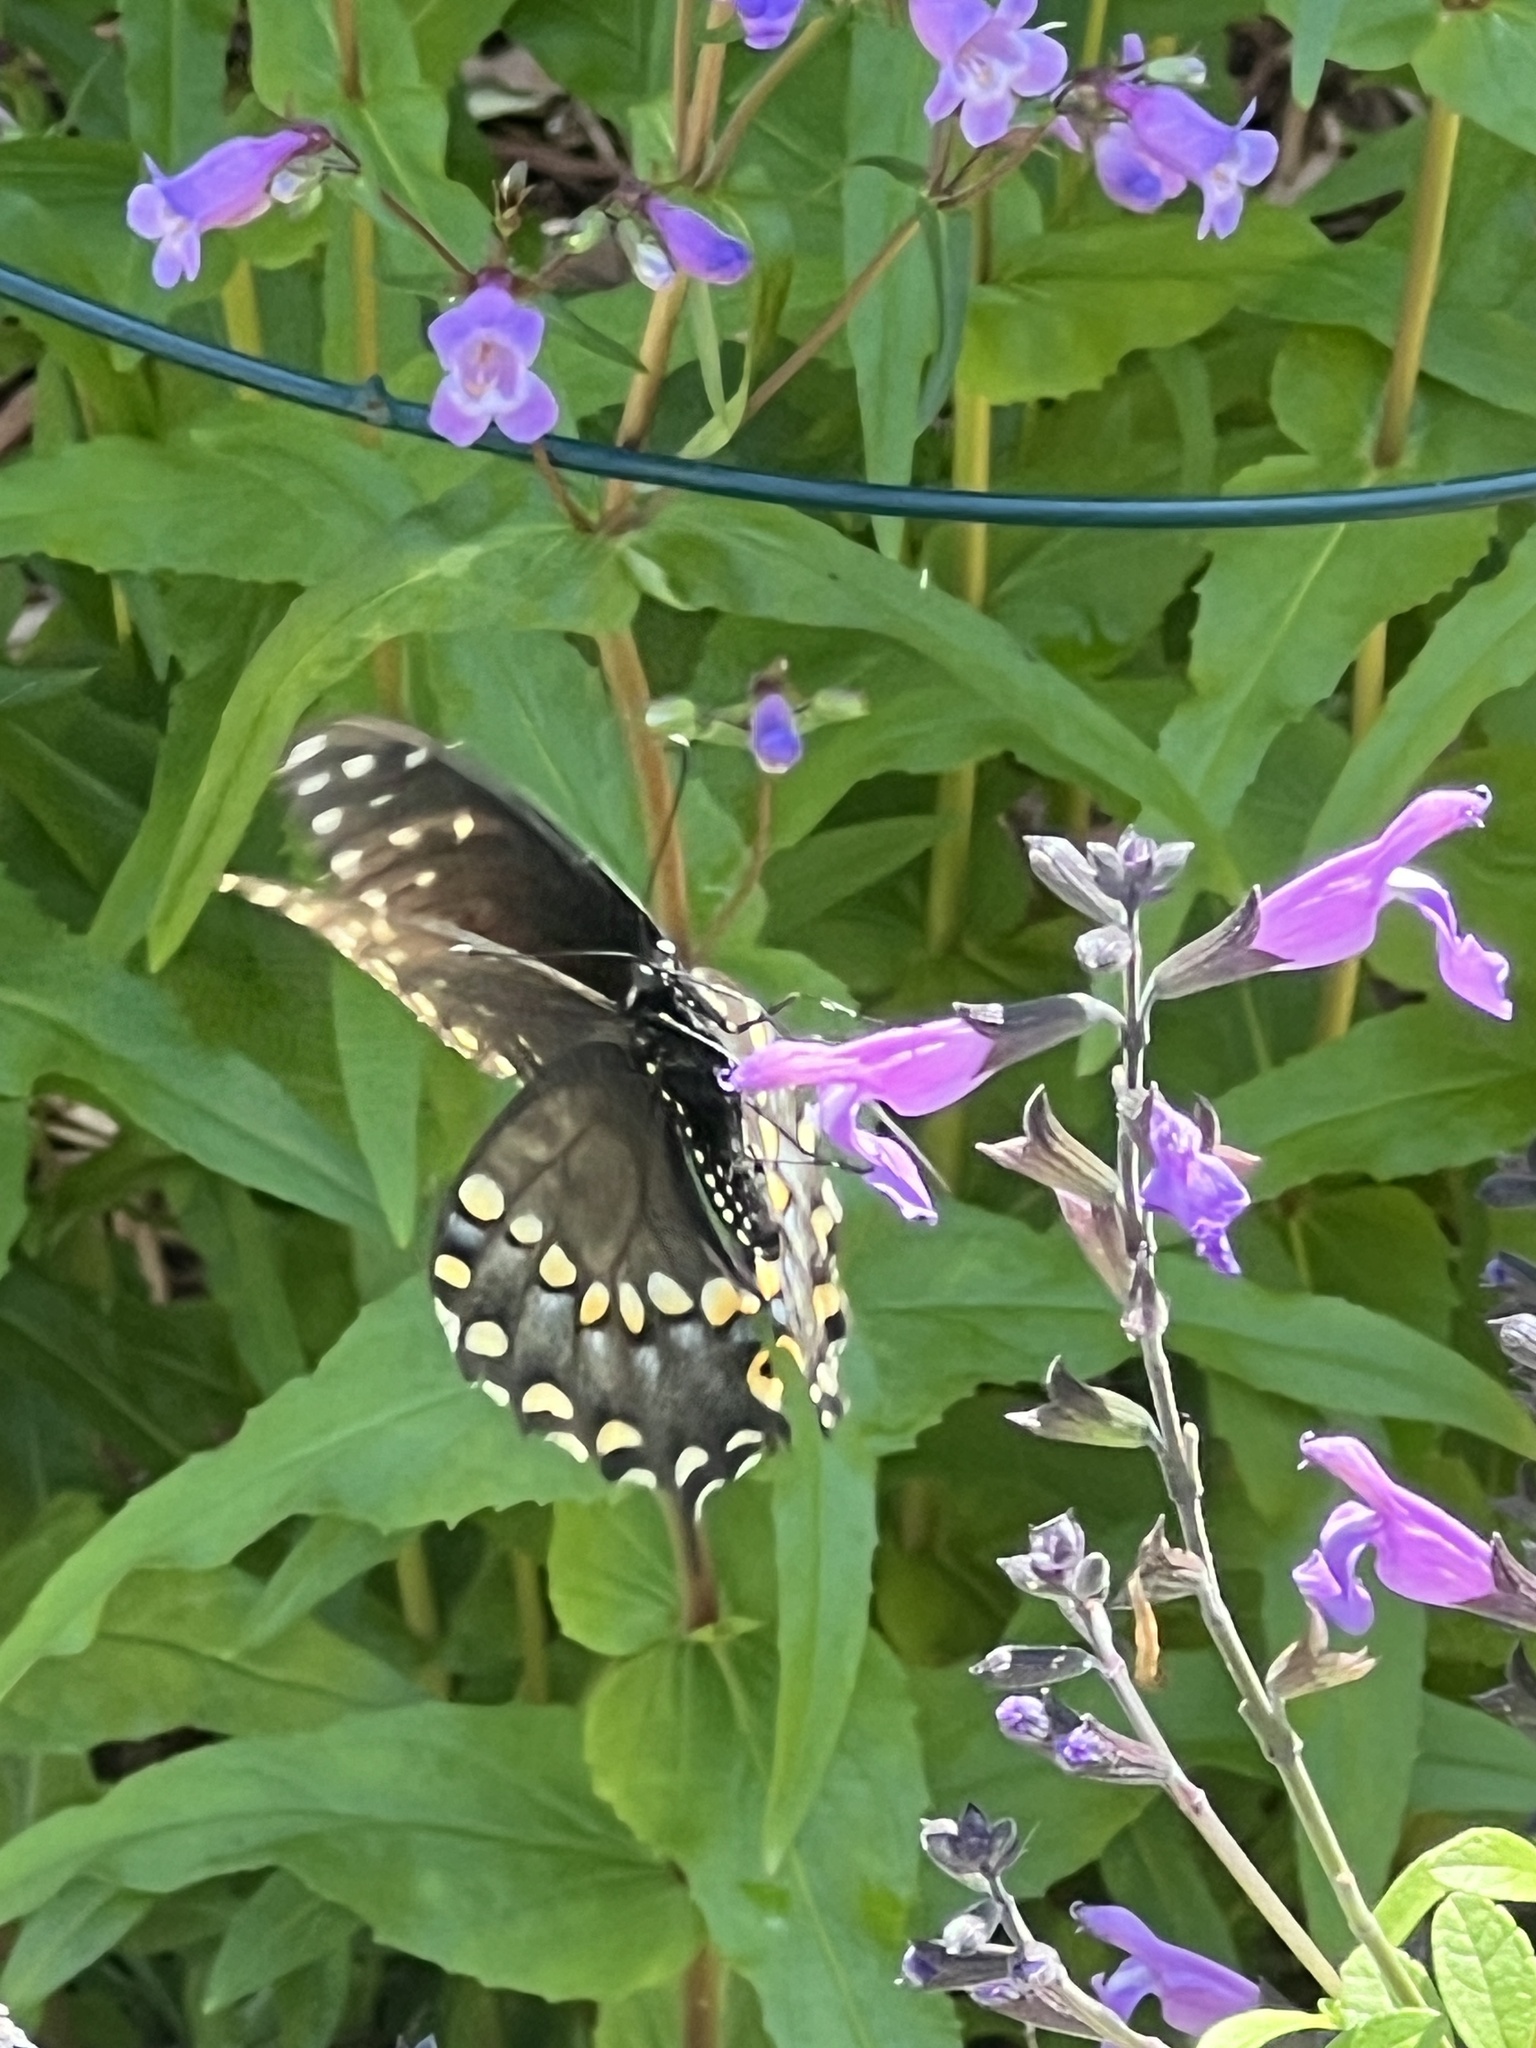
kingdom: Animalia
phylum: Arthropoda
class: Insecta
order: Lepidoptera
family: Papilionidae
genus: Papilio
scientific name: Papilio polyxenes
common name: Black swallowtail
